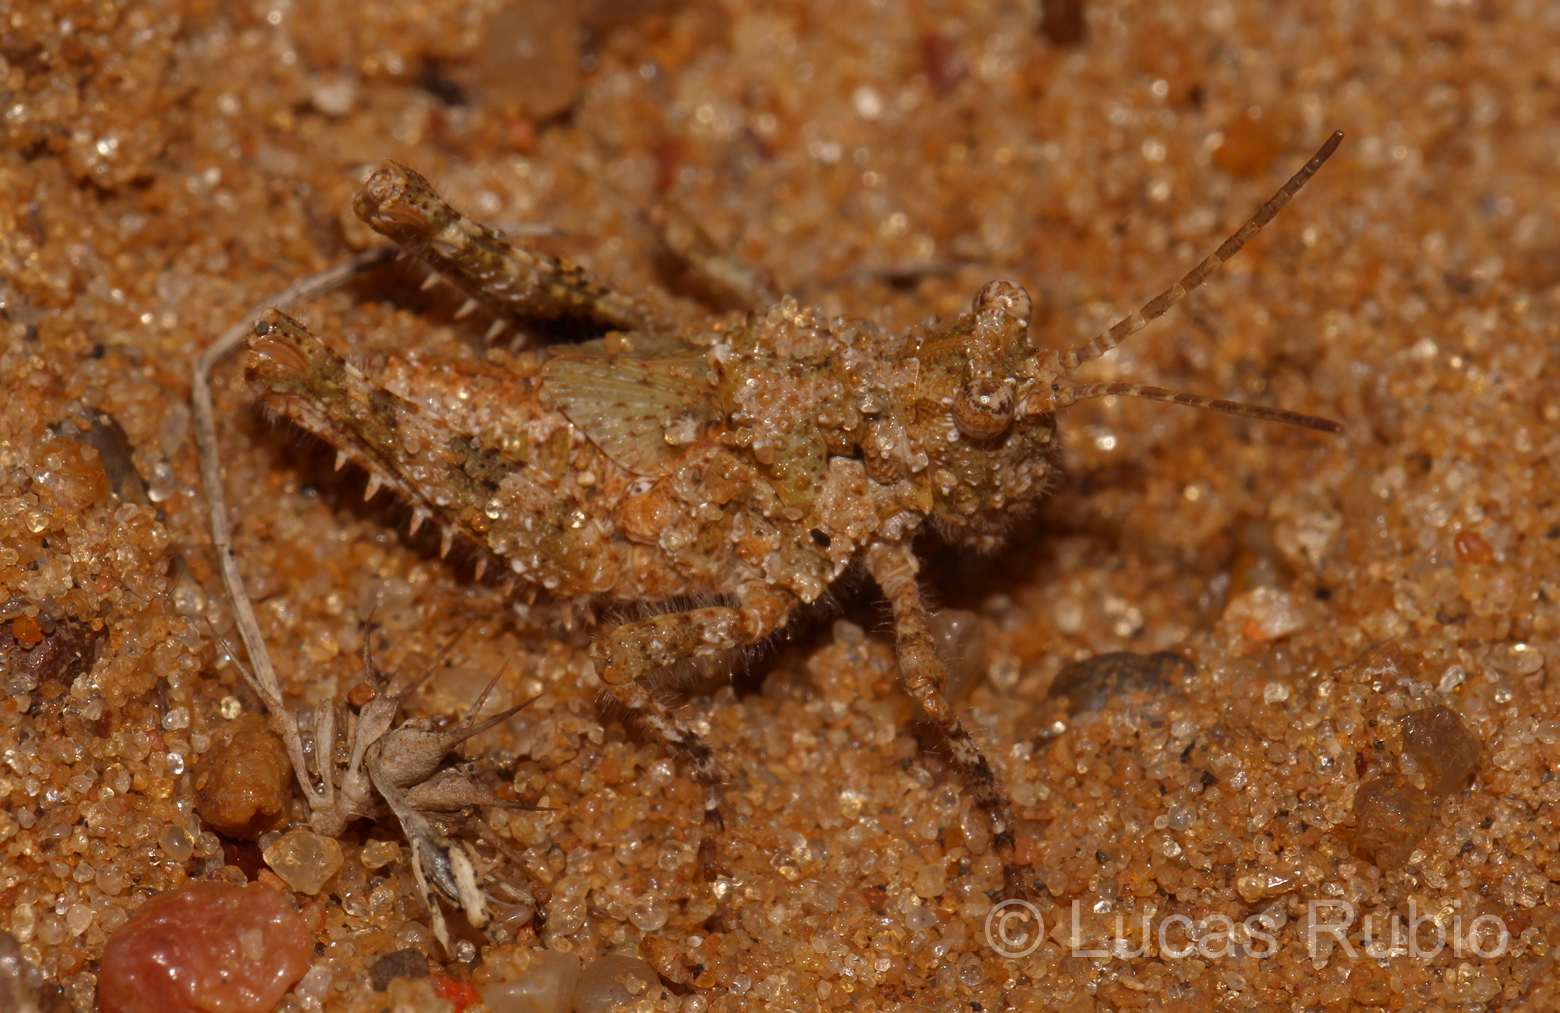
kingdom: Animalia
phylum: Arthropoda
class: Insecta
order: Orthoptera
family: Ommexechidae
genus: Ommexecha
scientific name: Ommexecha virens
